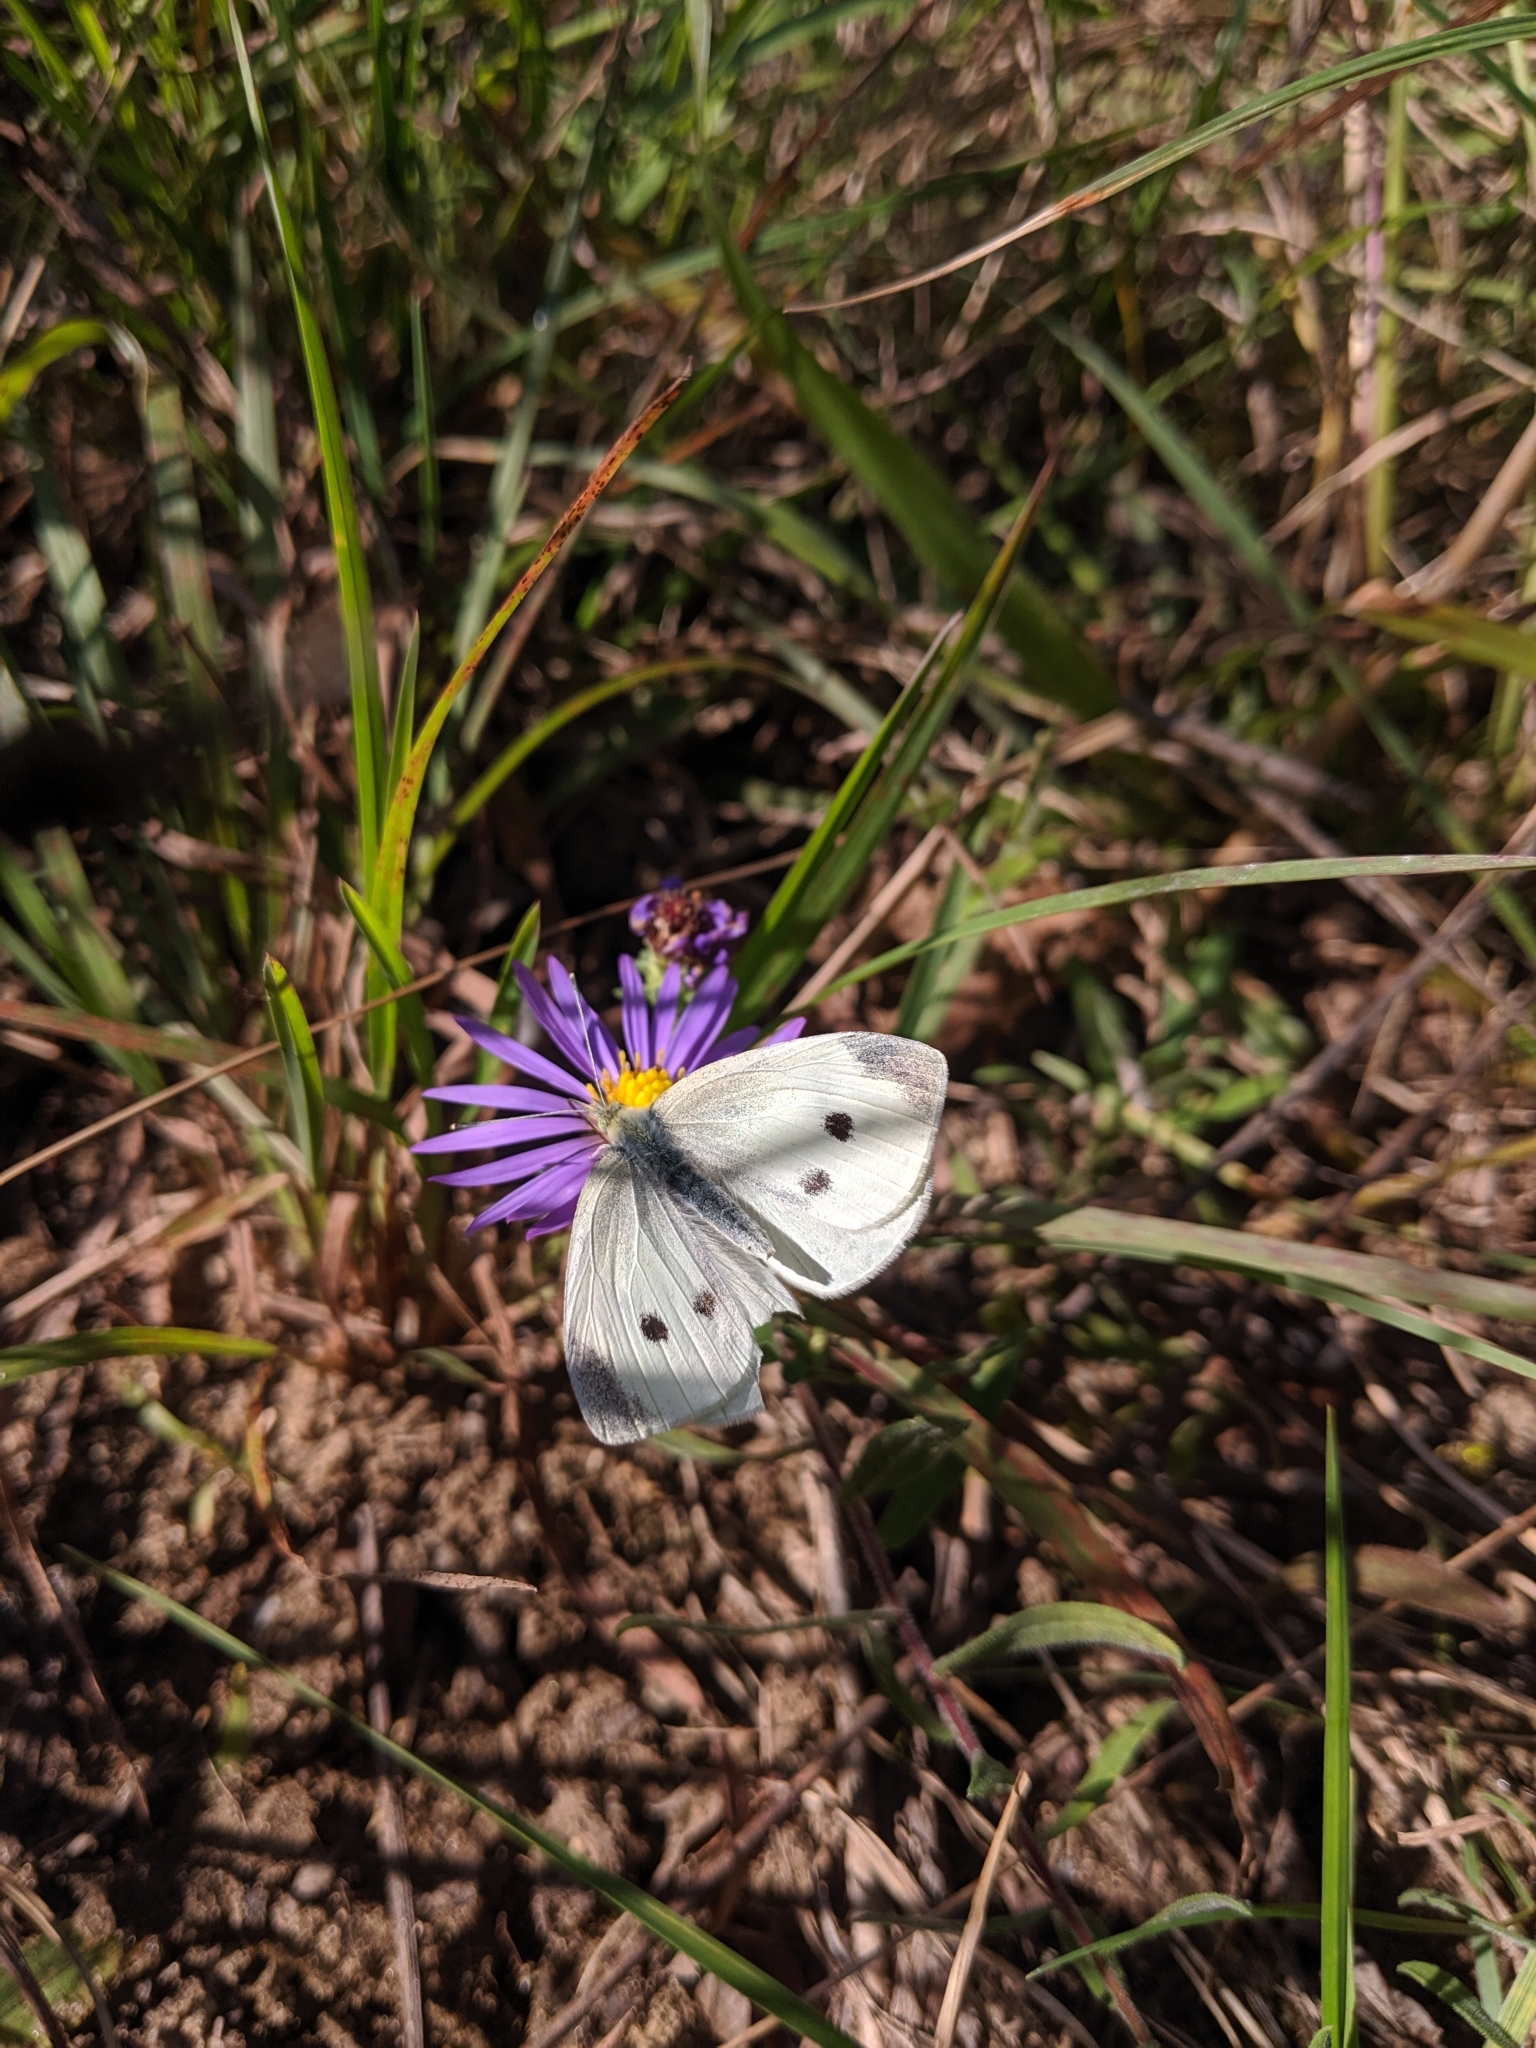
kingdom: Animalia
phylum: Arthropoda
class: Insecta
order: Lepidoptera
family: Pieridae
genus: Pieris
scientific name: Pieris rapae
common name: Small white
